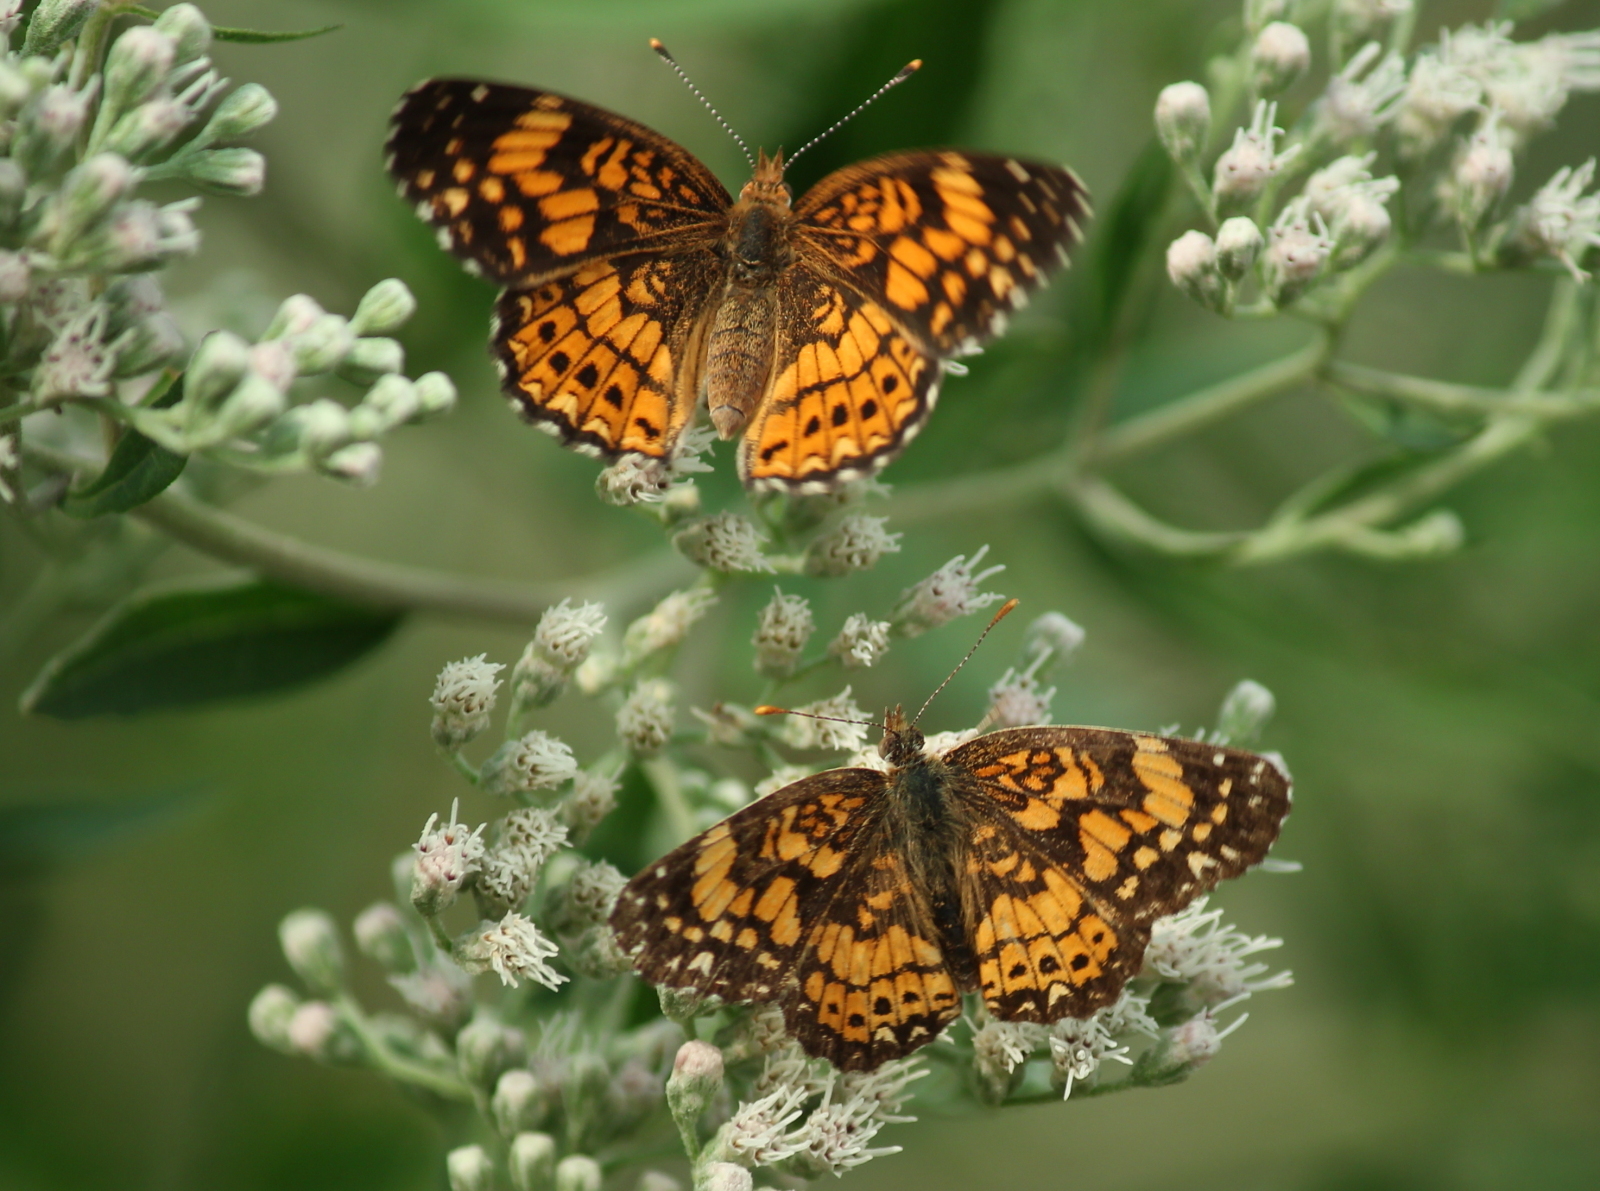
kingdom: Animalia
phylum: Arthropoda
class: Insecta
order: Lepidoptera
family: Nymphalidae
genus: Chlosyne
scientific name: Chlosyne gorgone
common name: Gorgone checkerspot
